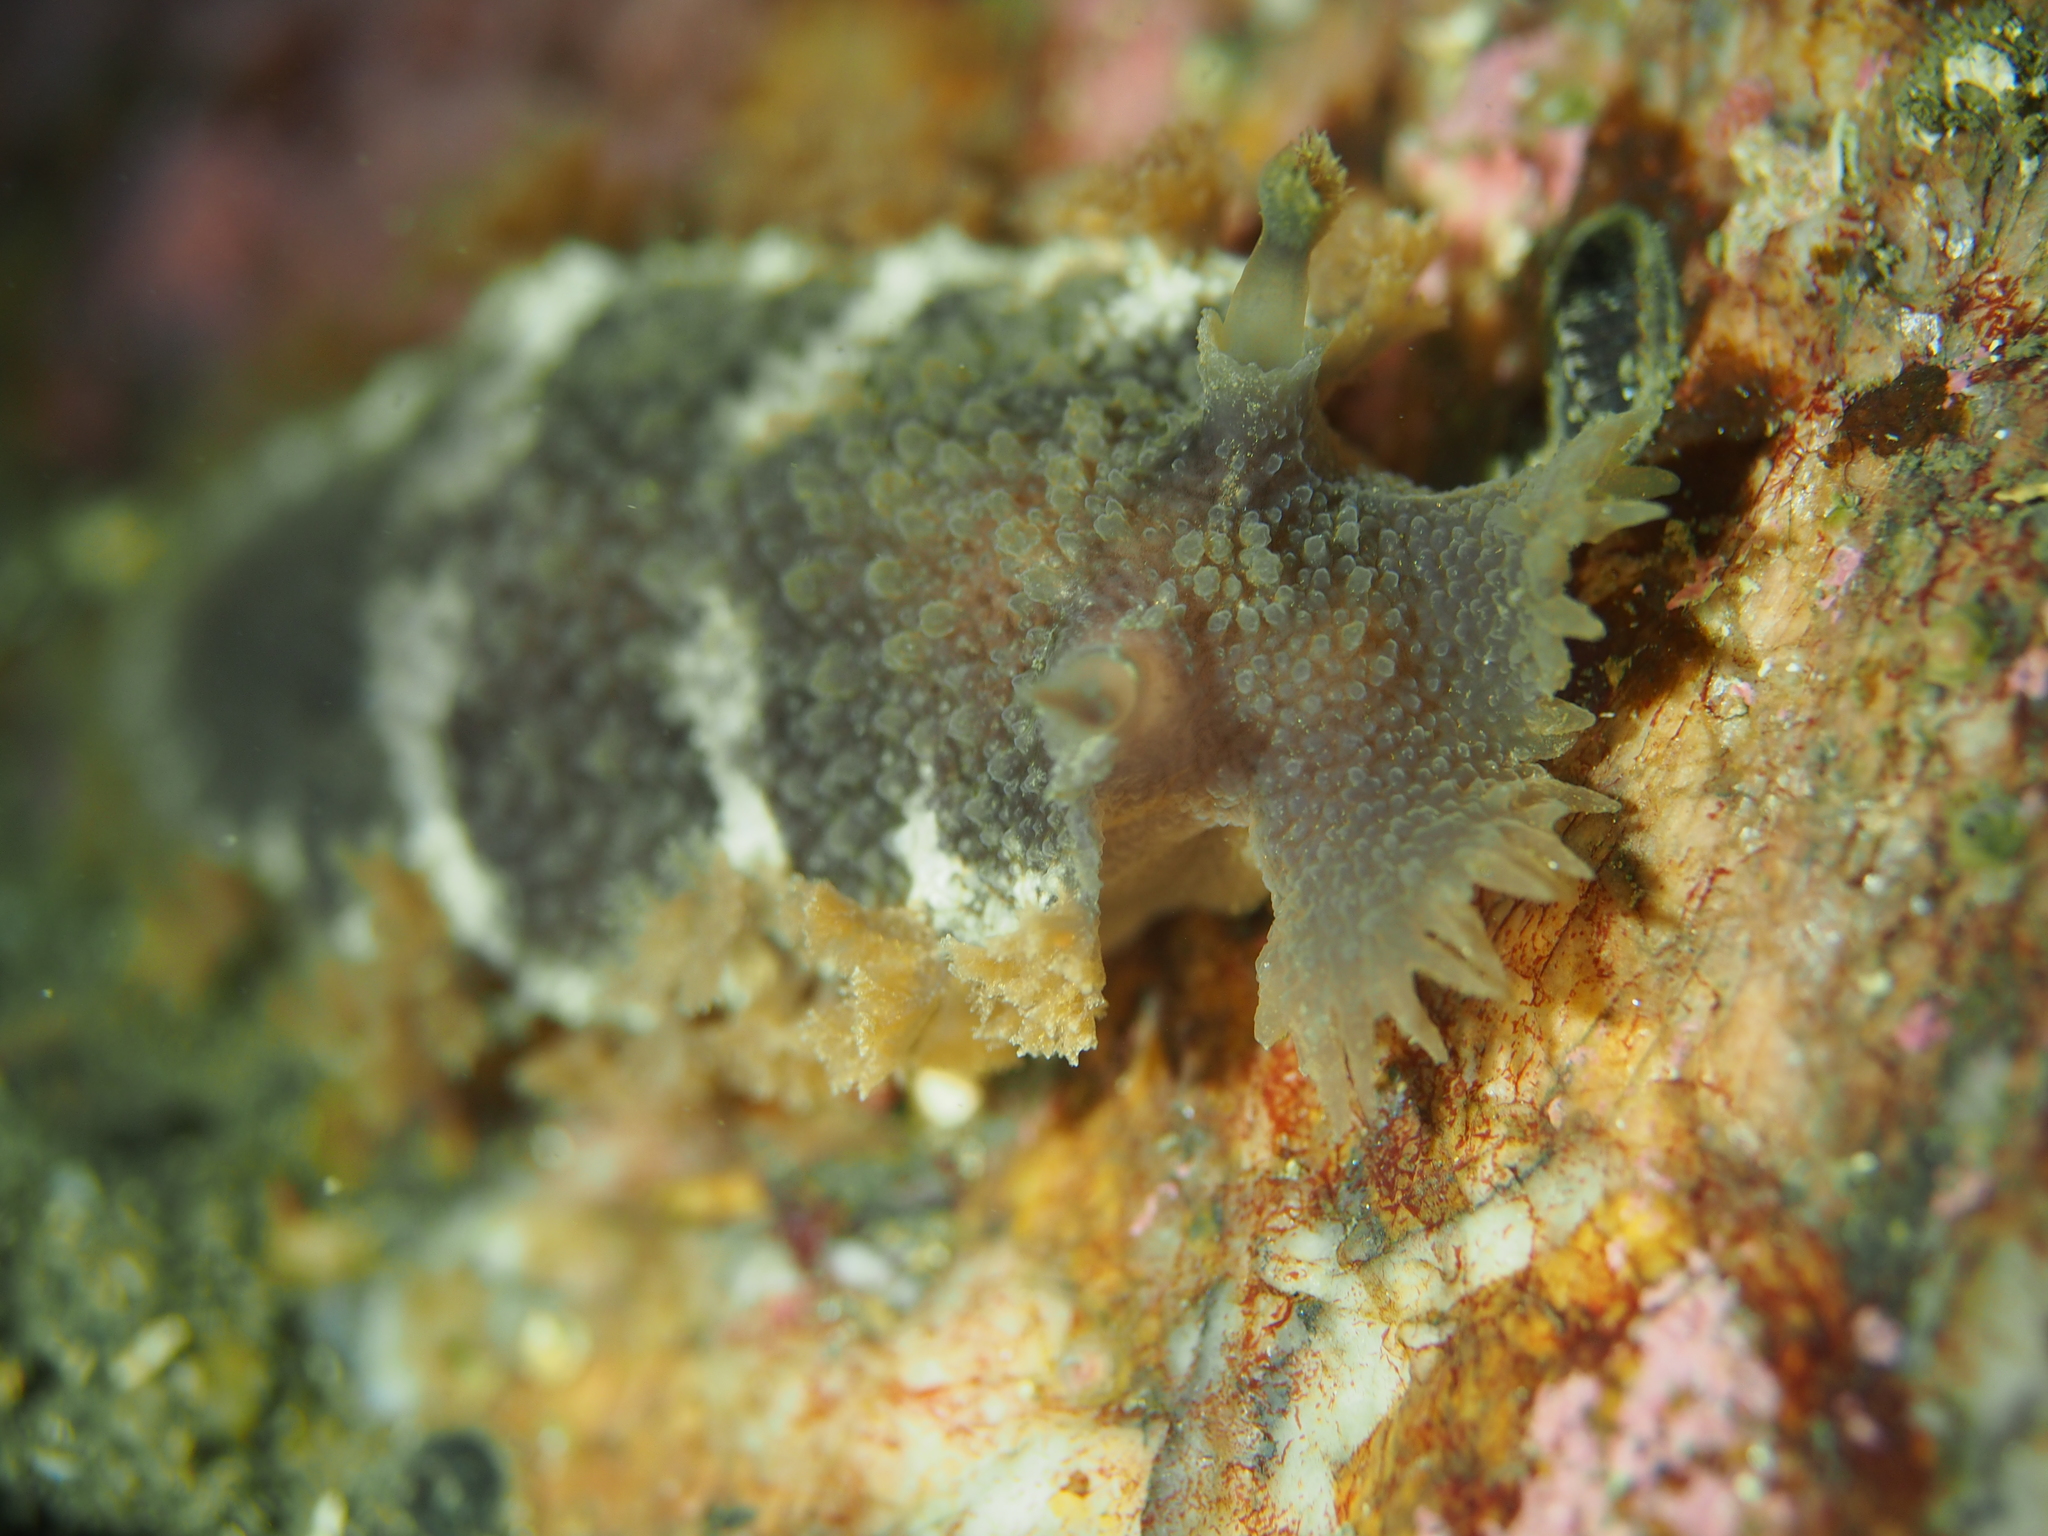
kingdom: Animalia
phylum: Mollusca
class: Gastropoda
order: Nudibranchia
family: Tritoniidae
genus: Tritonia
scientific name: Tritonia hombergii
